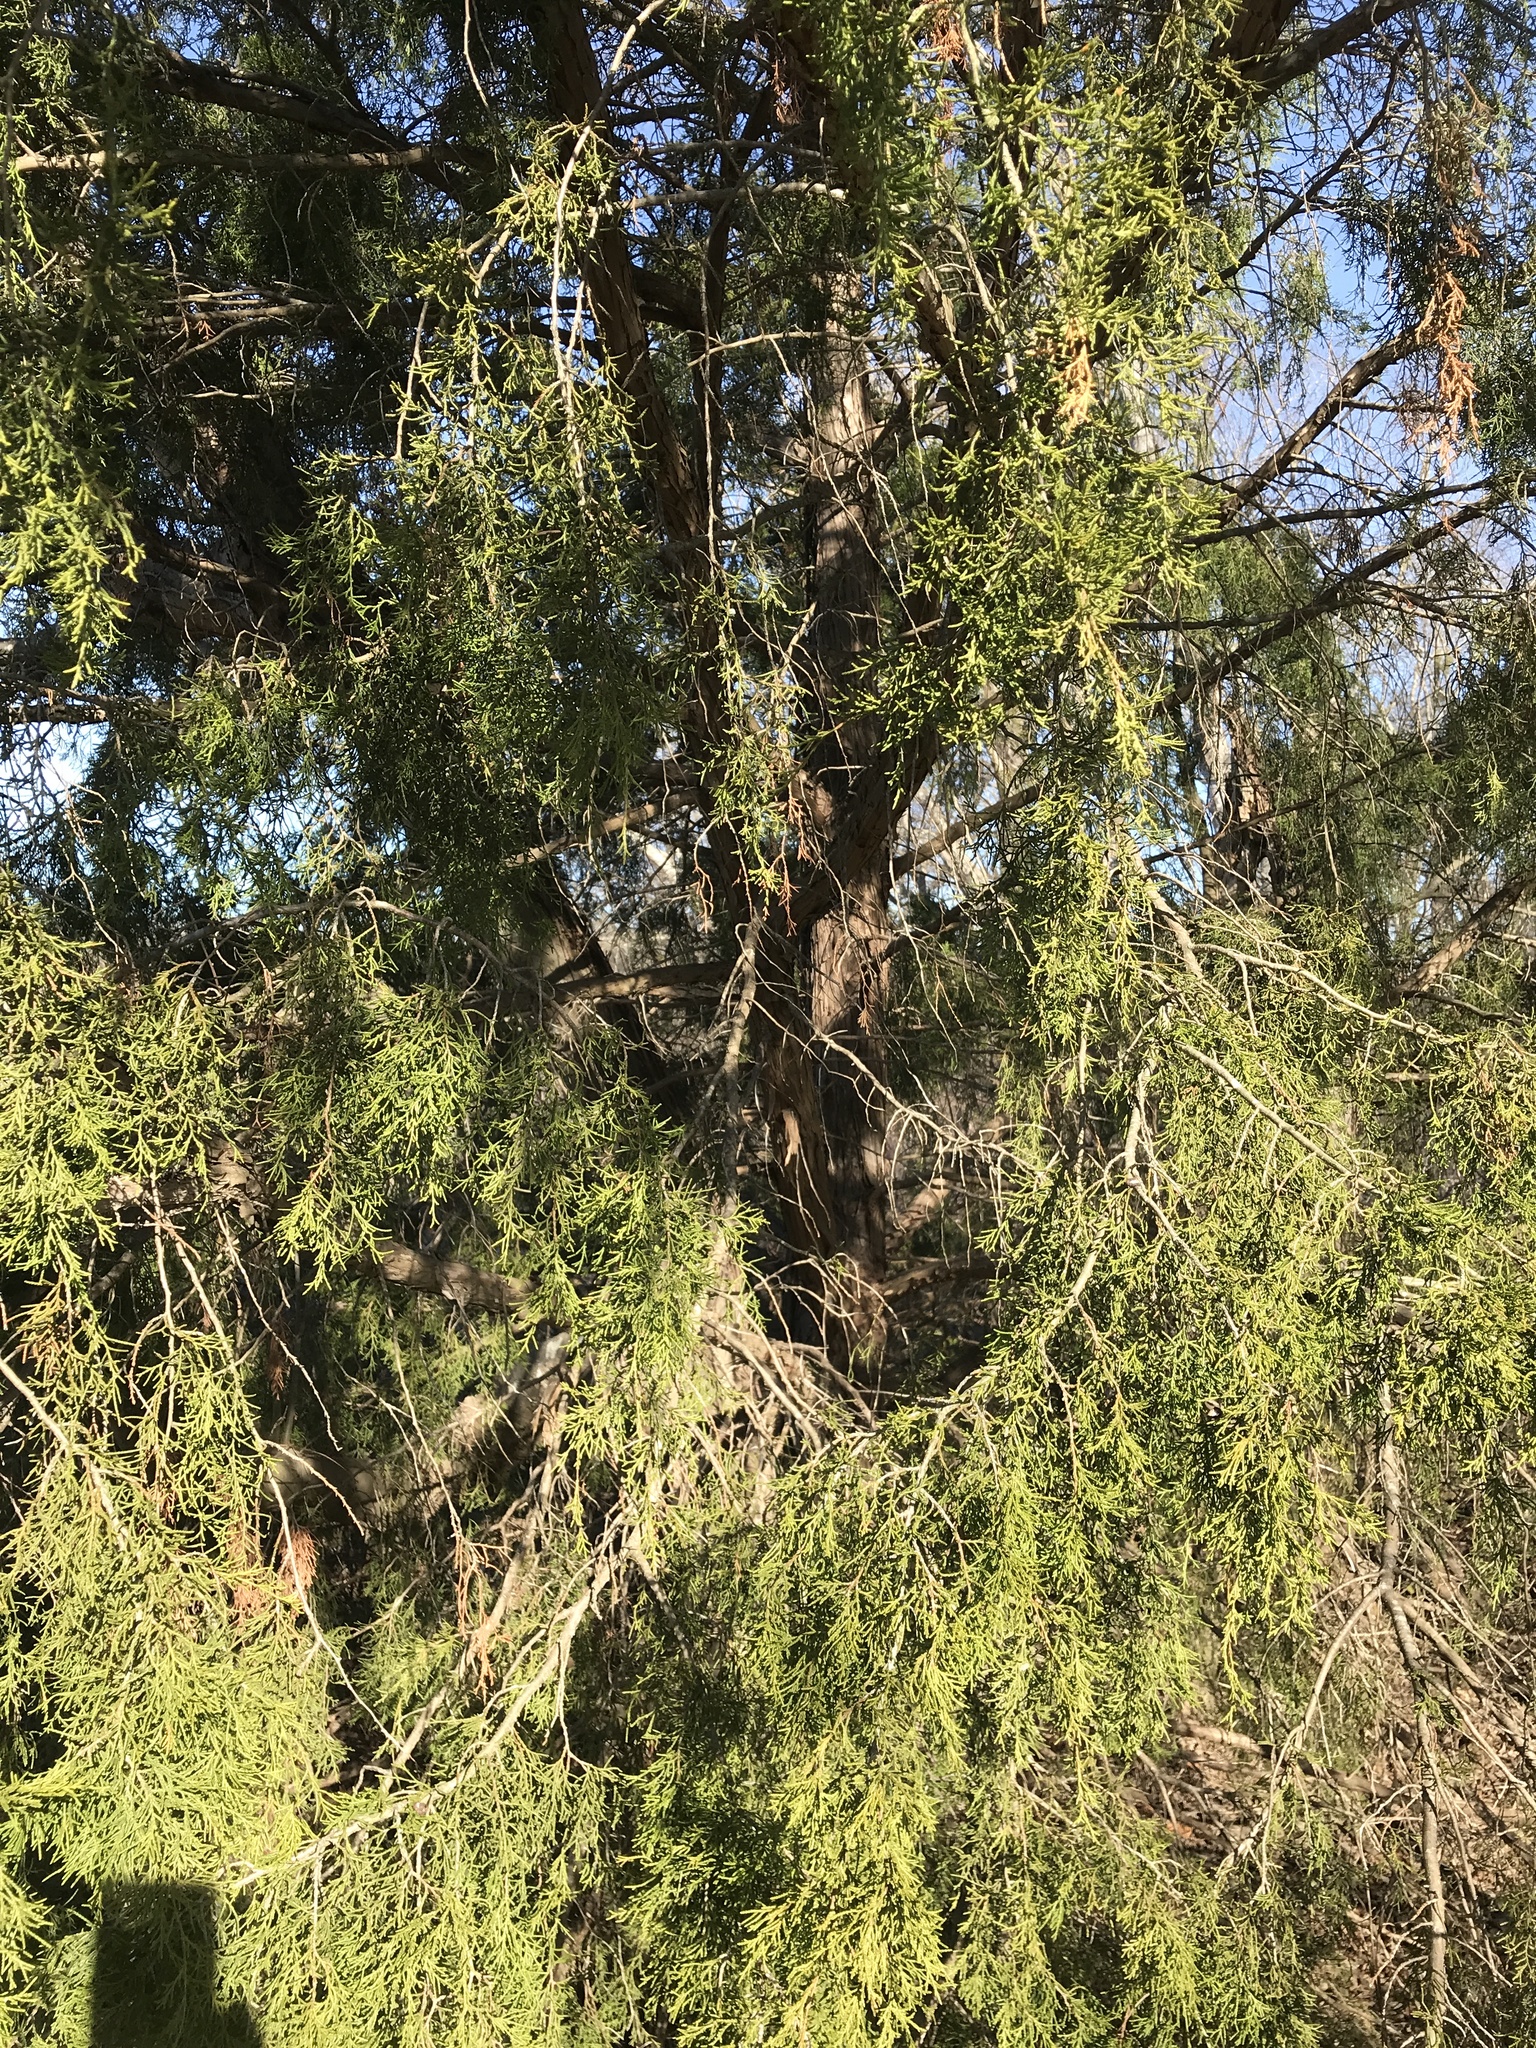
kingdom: Plantae
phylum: Tracheophyta
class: Pinopsida
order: Pinales
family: Cupressaceae
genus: Juniperus
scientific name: Juniperus virginiana
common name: Red juniper
